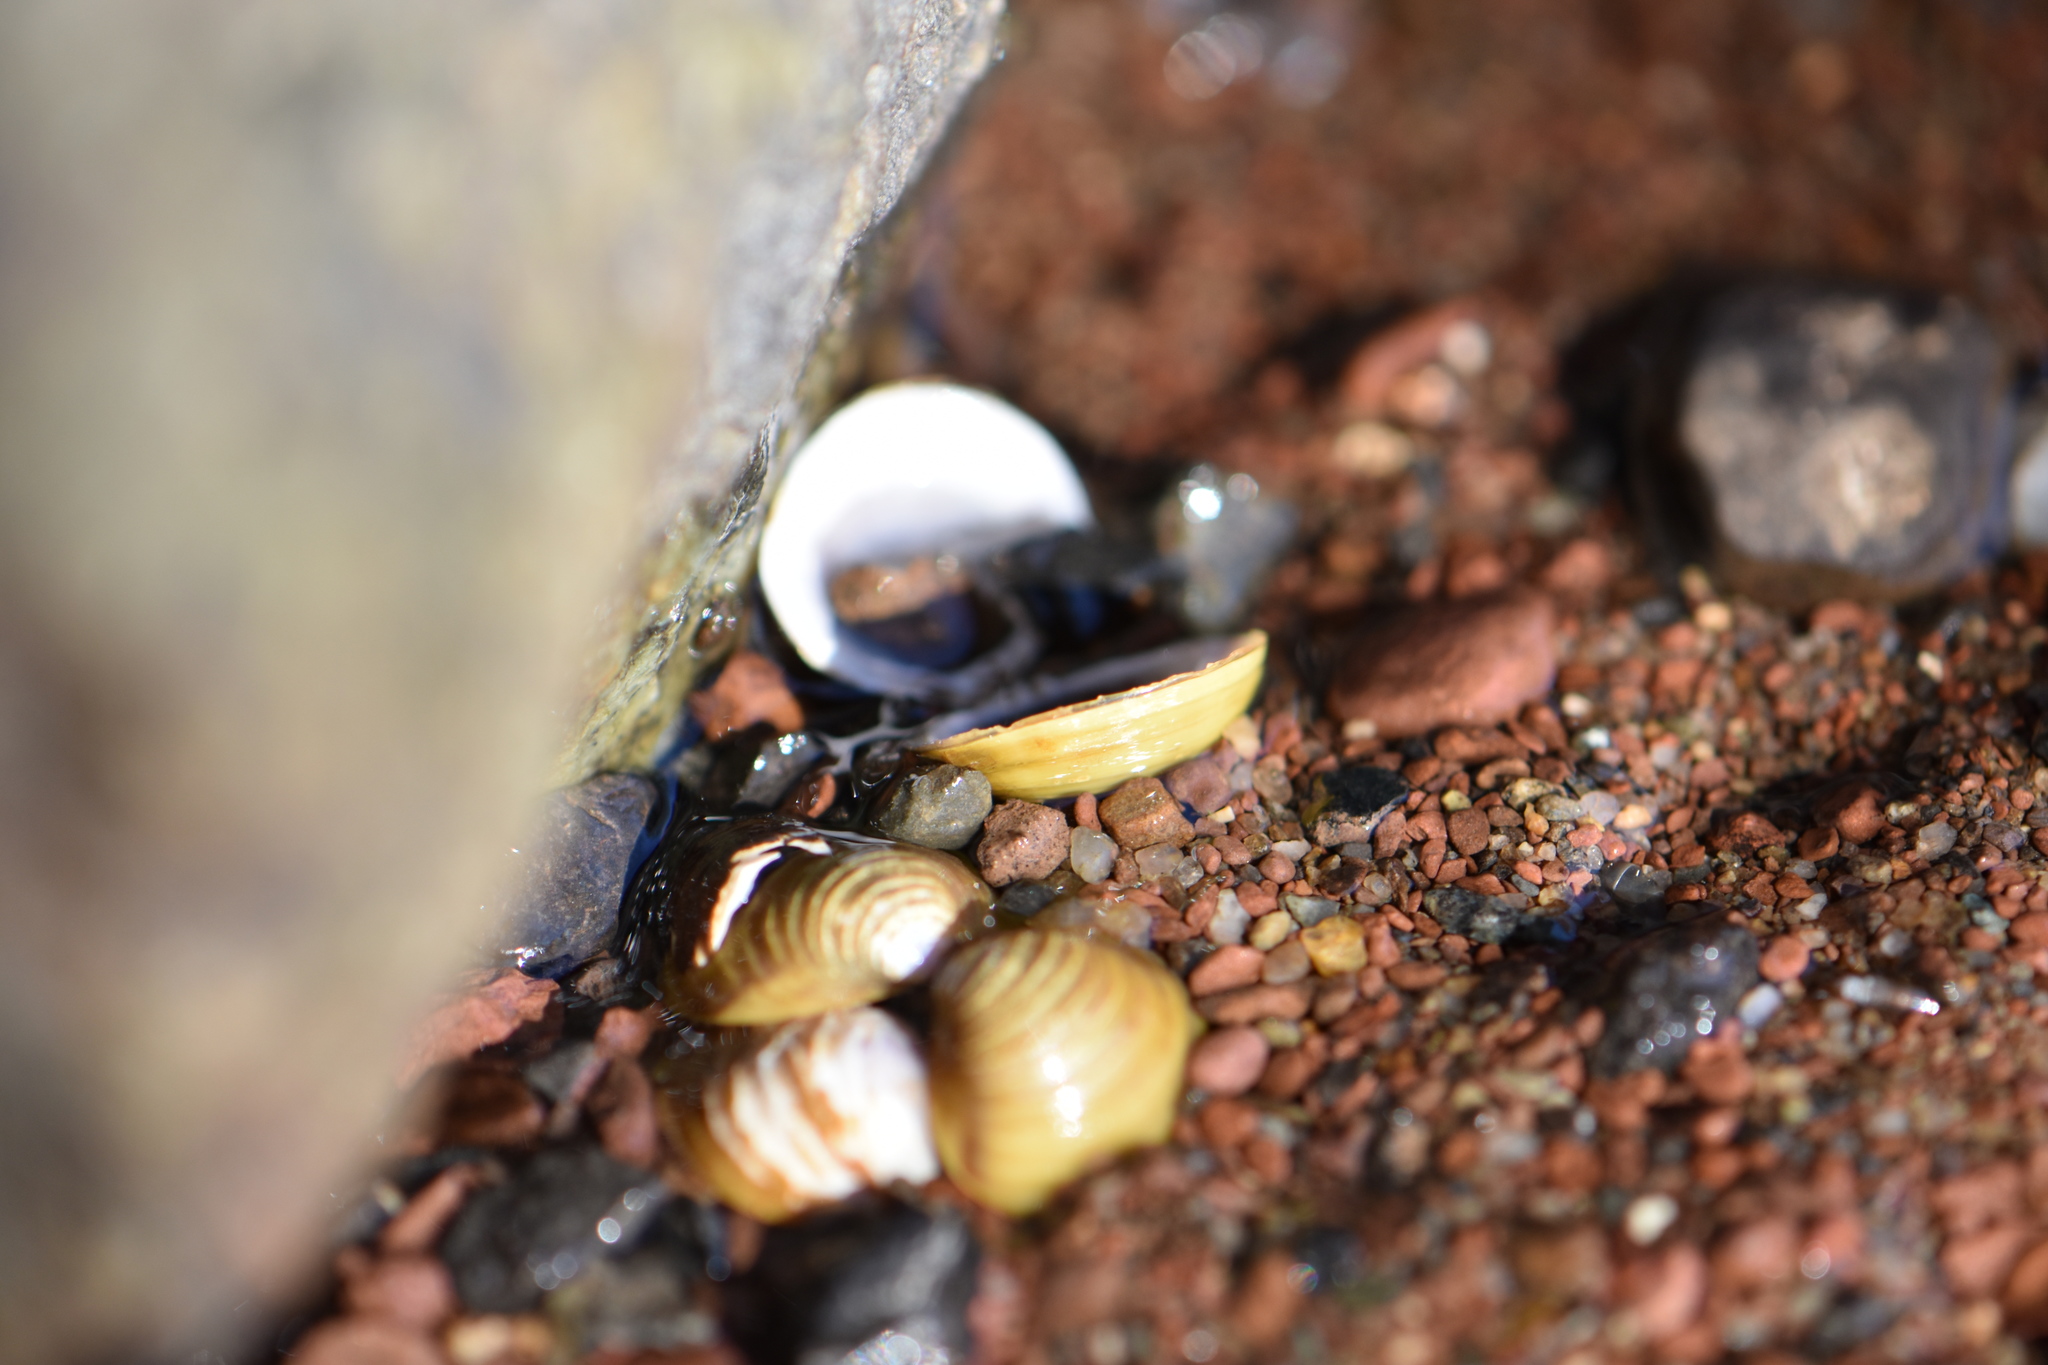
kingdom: Animalia
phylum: Mollusca
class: Bivalvia
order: Venerida
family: Cyrenidae
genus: Corbicula
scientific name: Corbicula fluminea
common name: Asian clam
